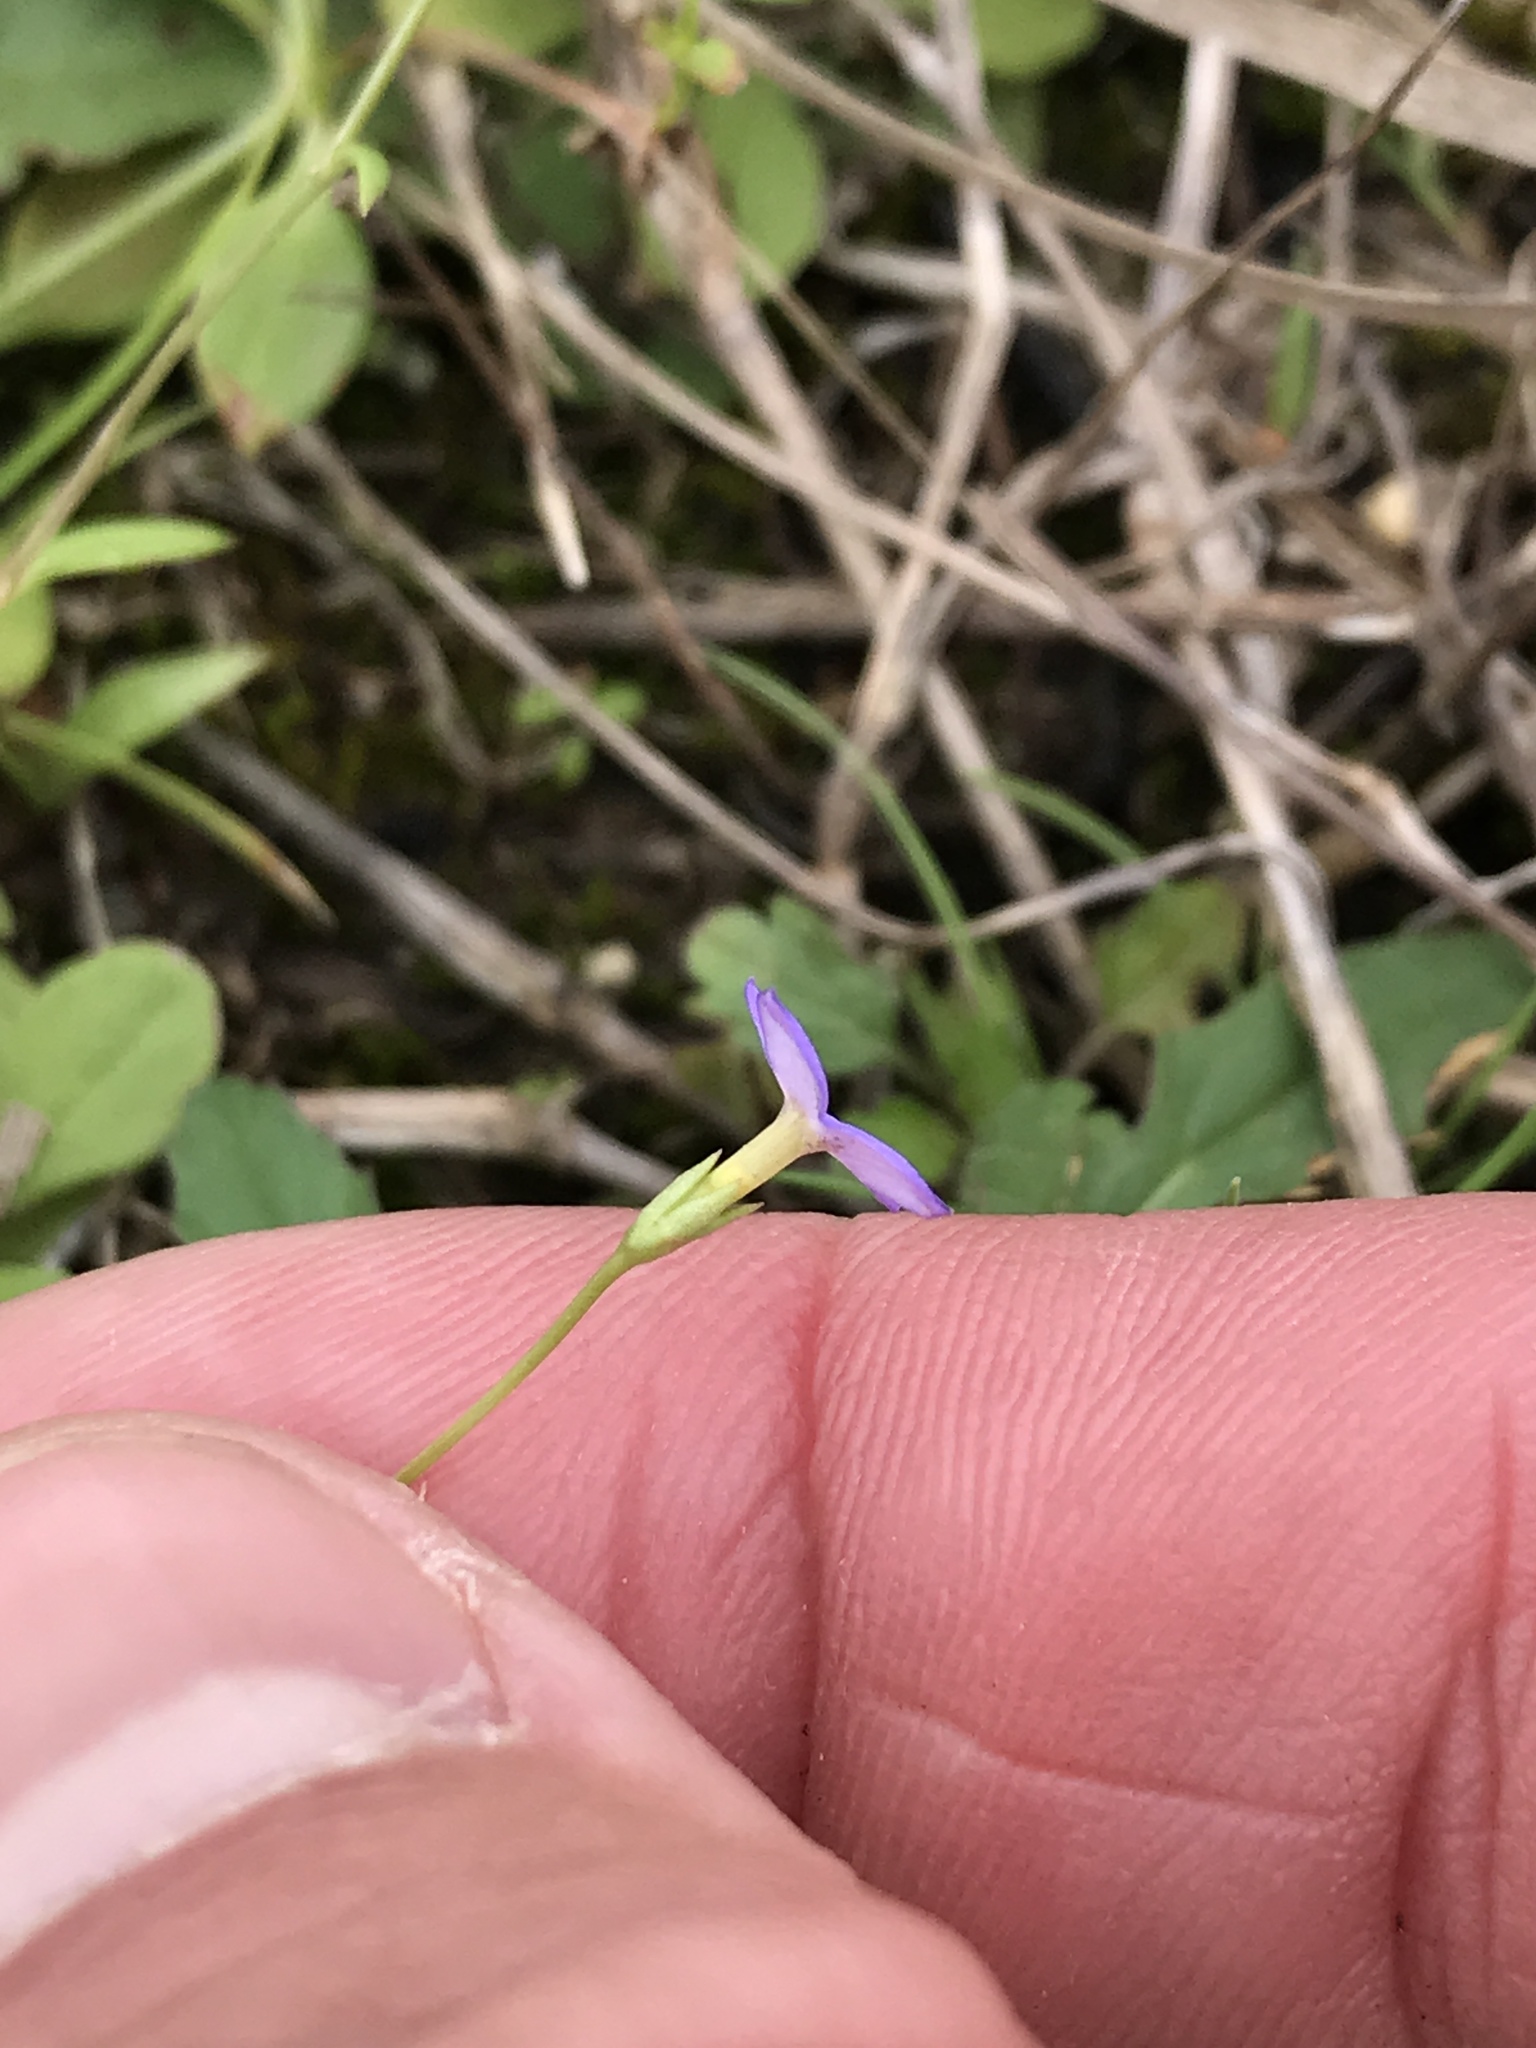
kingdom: Plantae
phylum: Tracheophyta
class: Magnoliopsida
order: Gentianales
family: Rubiaceae
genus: Houstonia
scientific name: Houstonia pusilla
